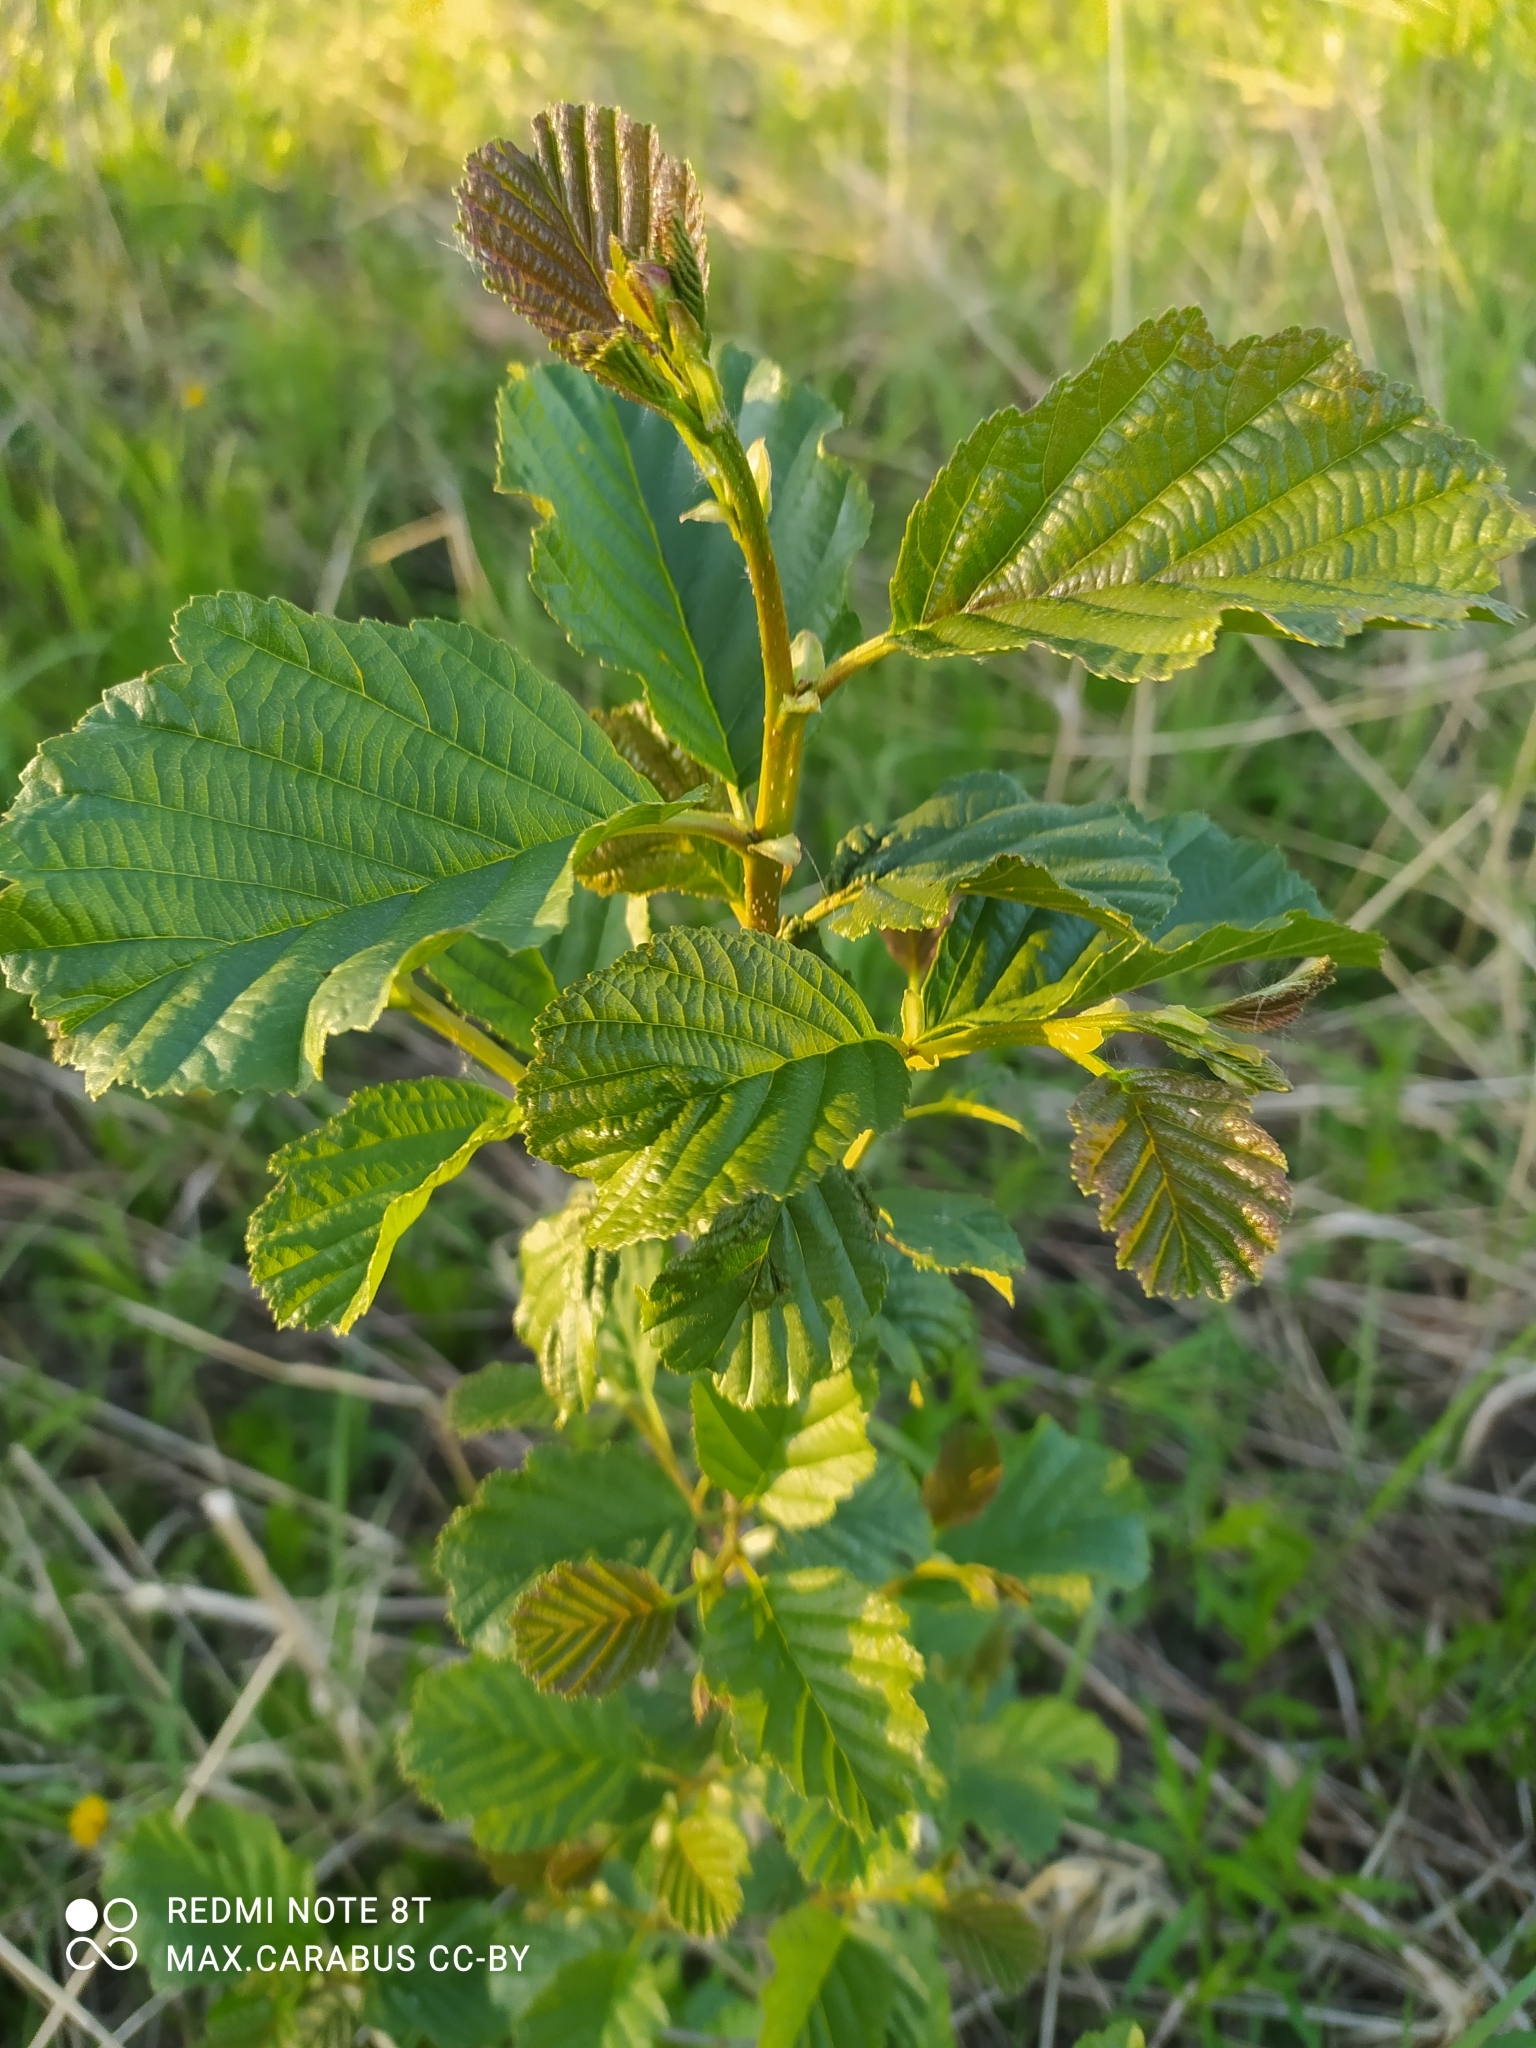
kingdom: Plantae
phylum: Tracheophyta
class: Magnoliopsida
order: Fagales
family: Betulaceae
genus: Alnus
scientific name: Alnus glutinosa
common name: Black alder
